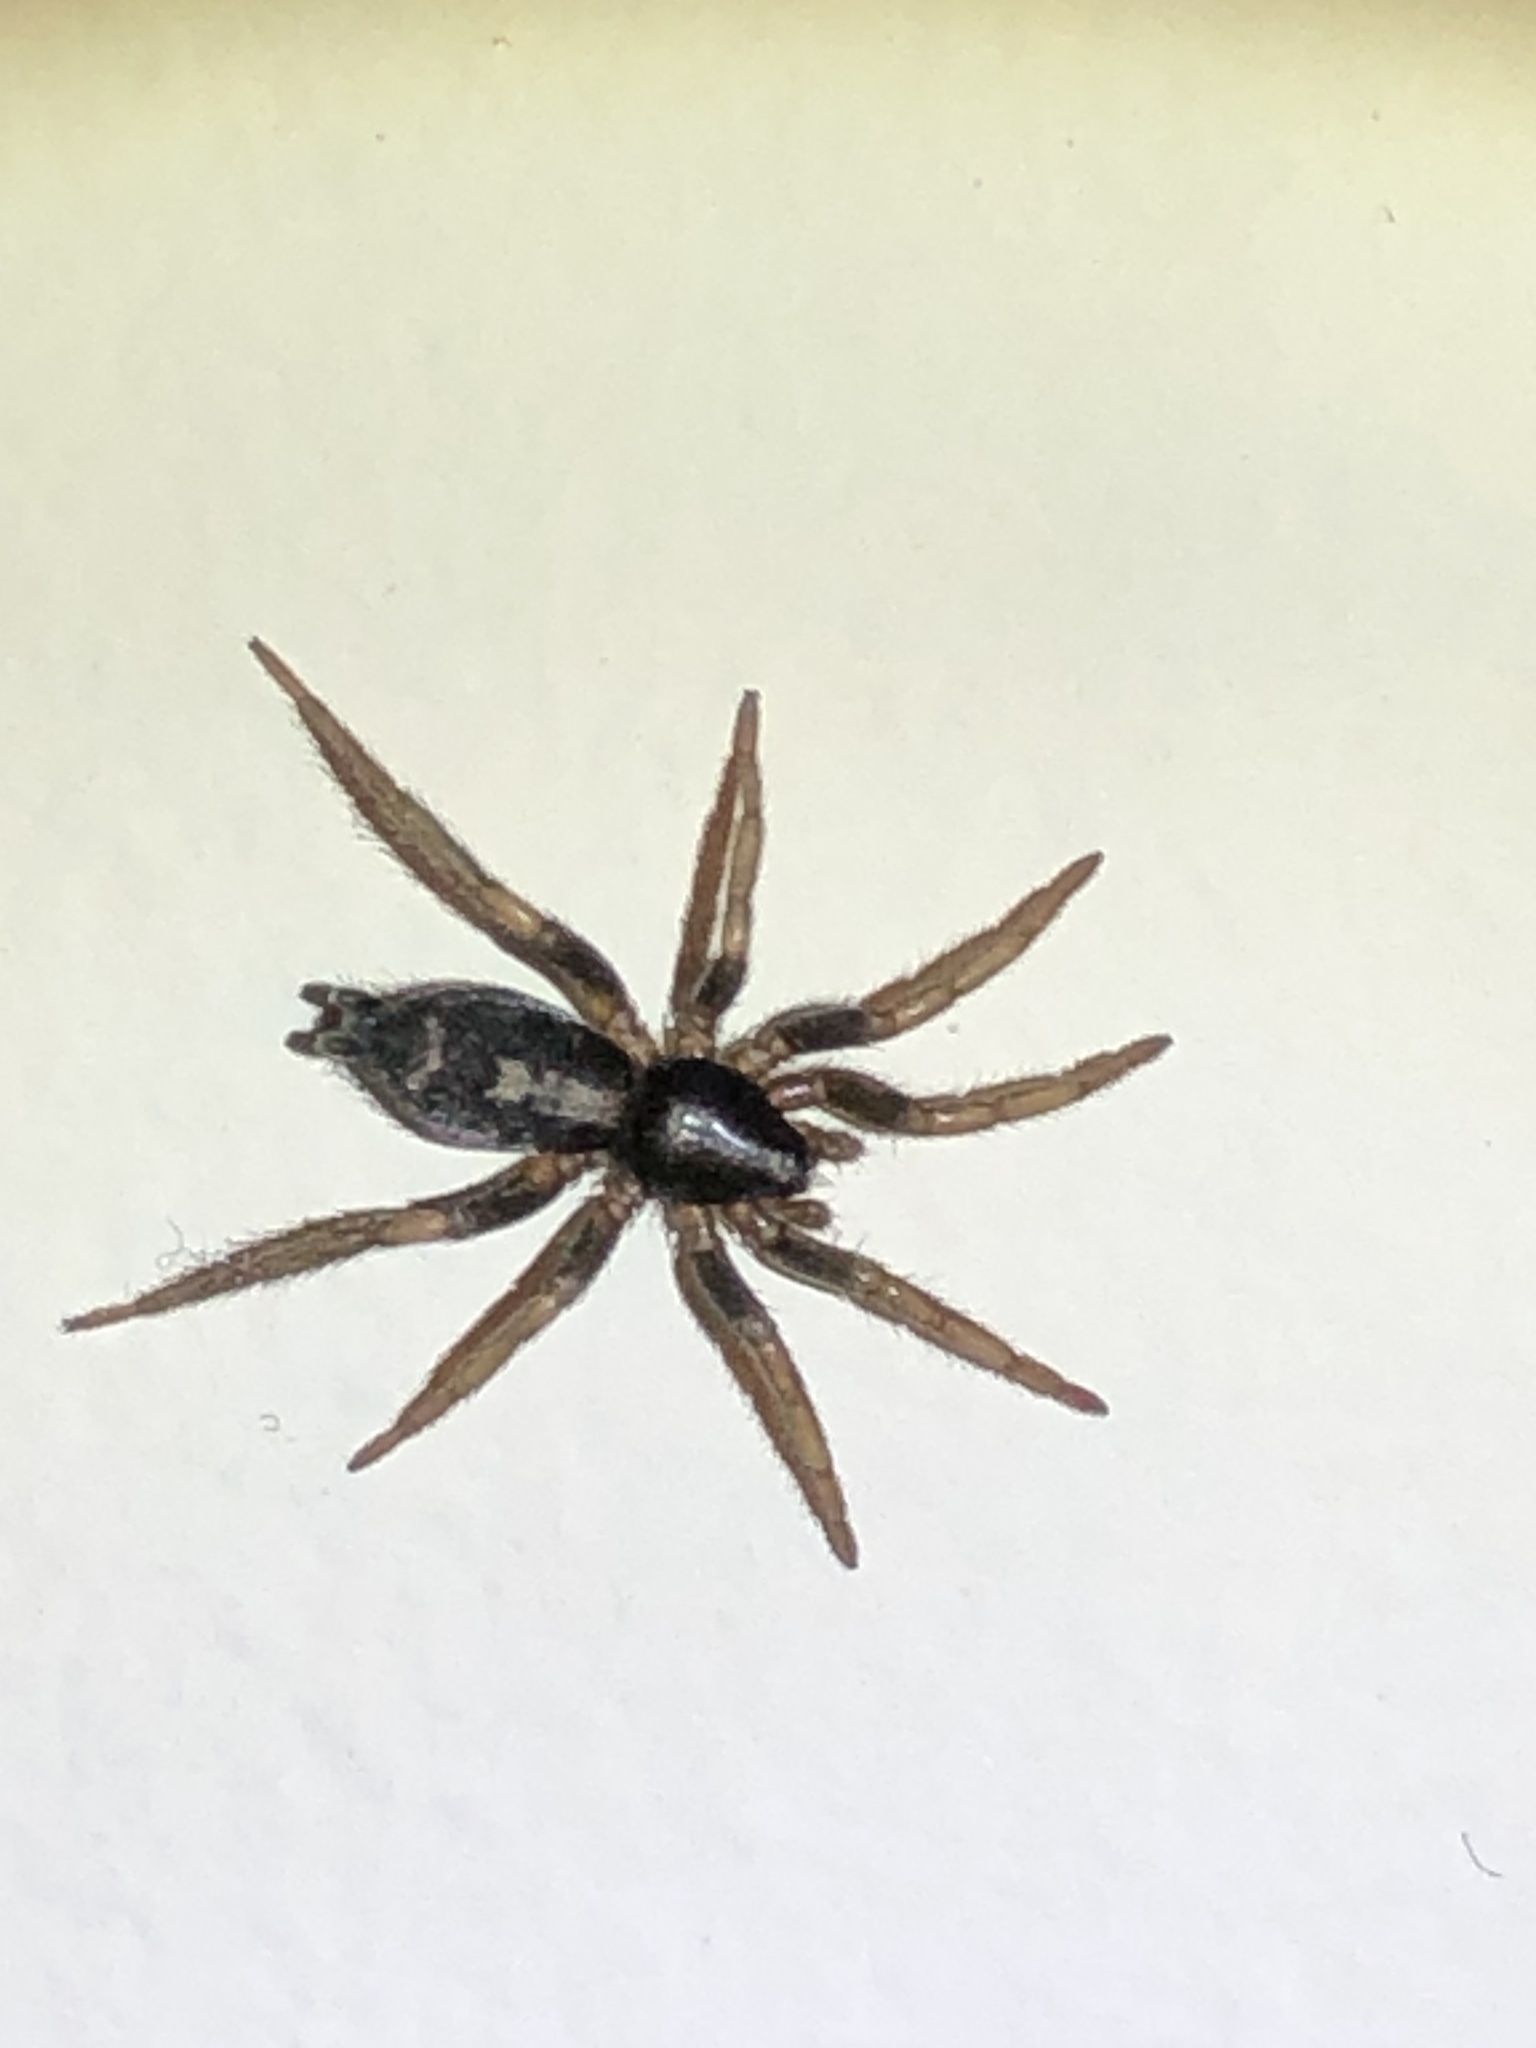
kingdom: Animalia
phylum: Arthropoda
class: Arachnida
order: Araneae
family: Gnaphosidae
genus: Herpyllus
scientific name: Herpyllus ecclesiasticus
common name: Eastern parson spider
